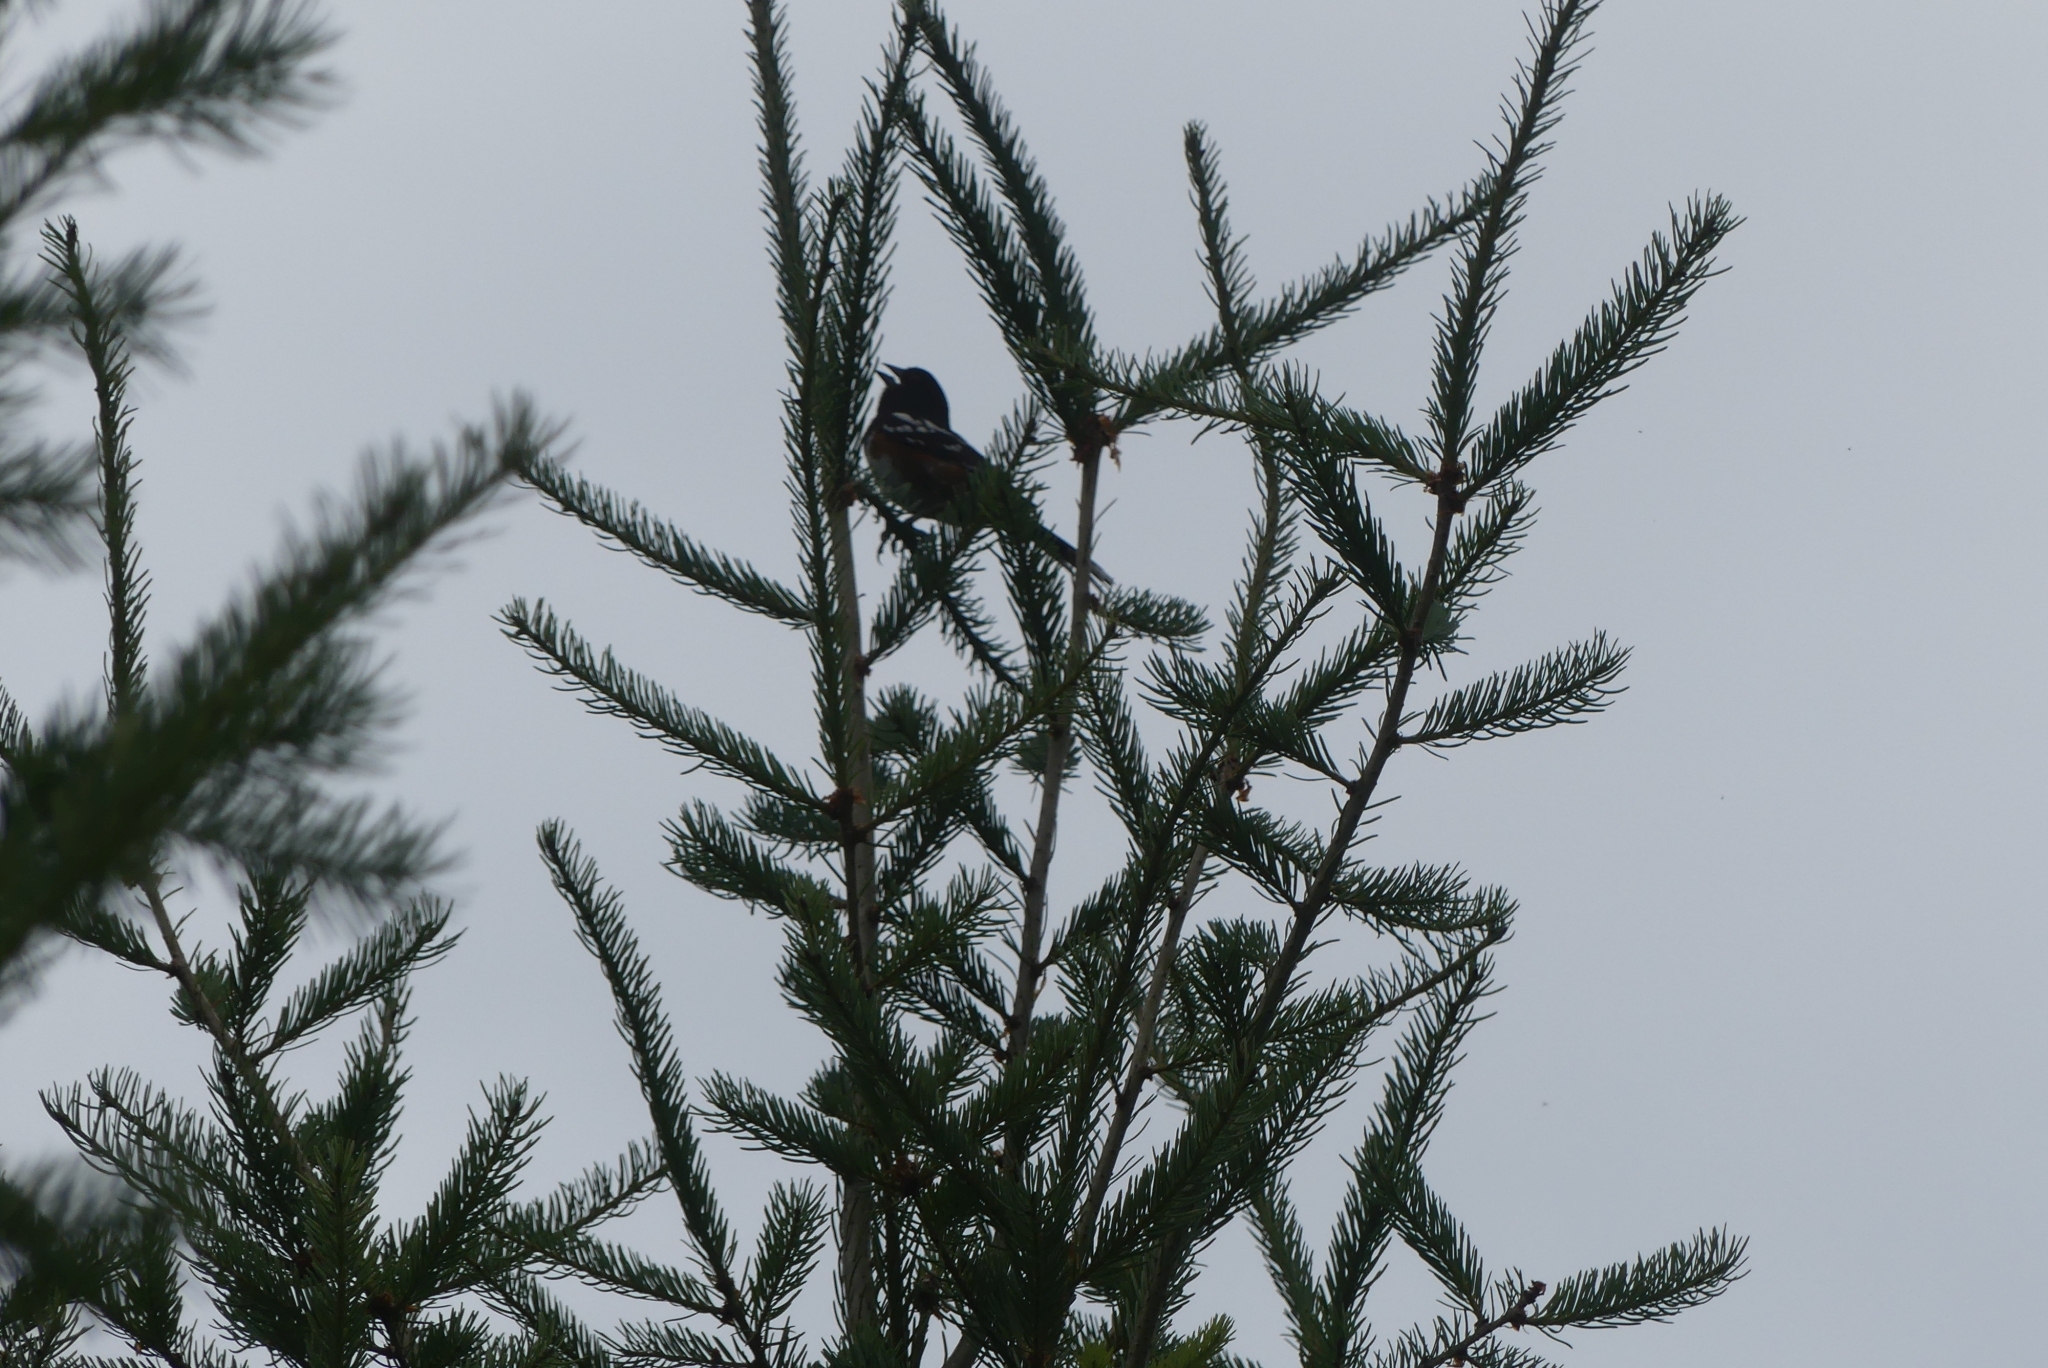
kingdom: Animalia
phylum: Chordata
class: Aves
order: Passeriformes
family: Passerellidae
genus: Pipilo
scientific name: Pipilo maculatus
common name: Spotted towhee
